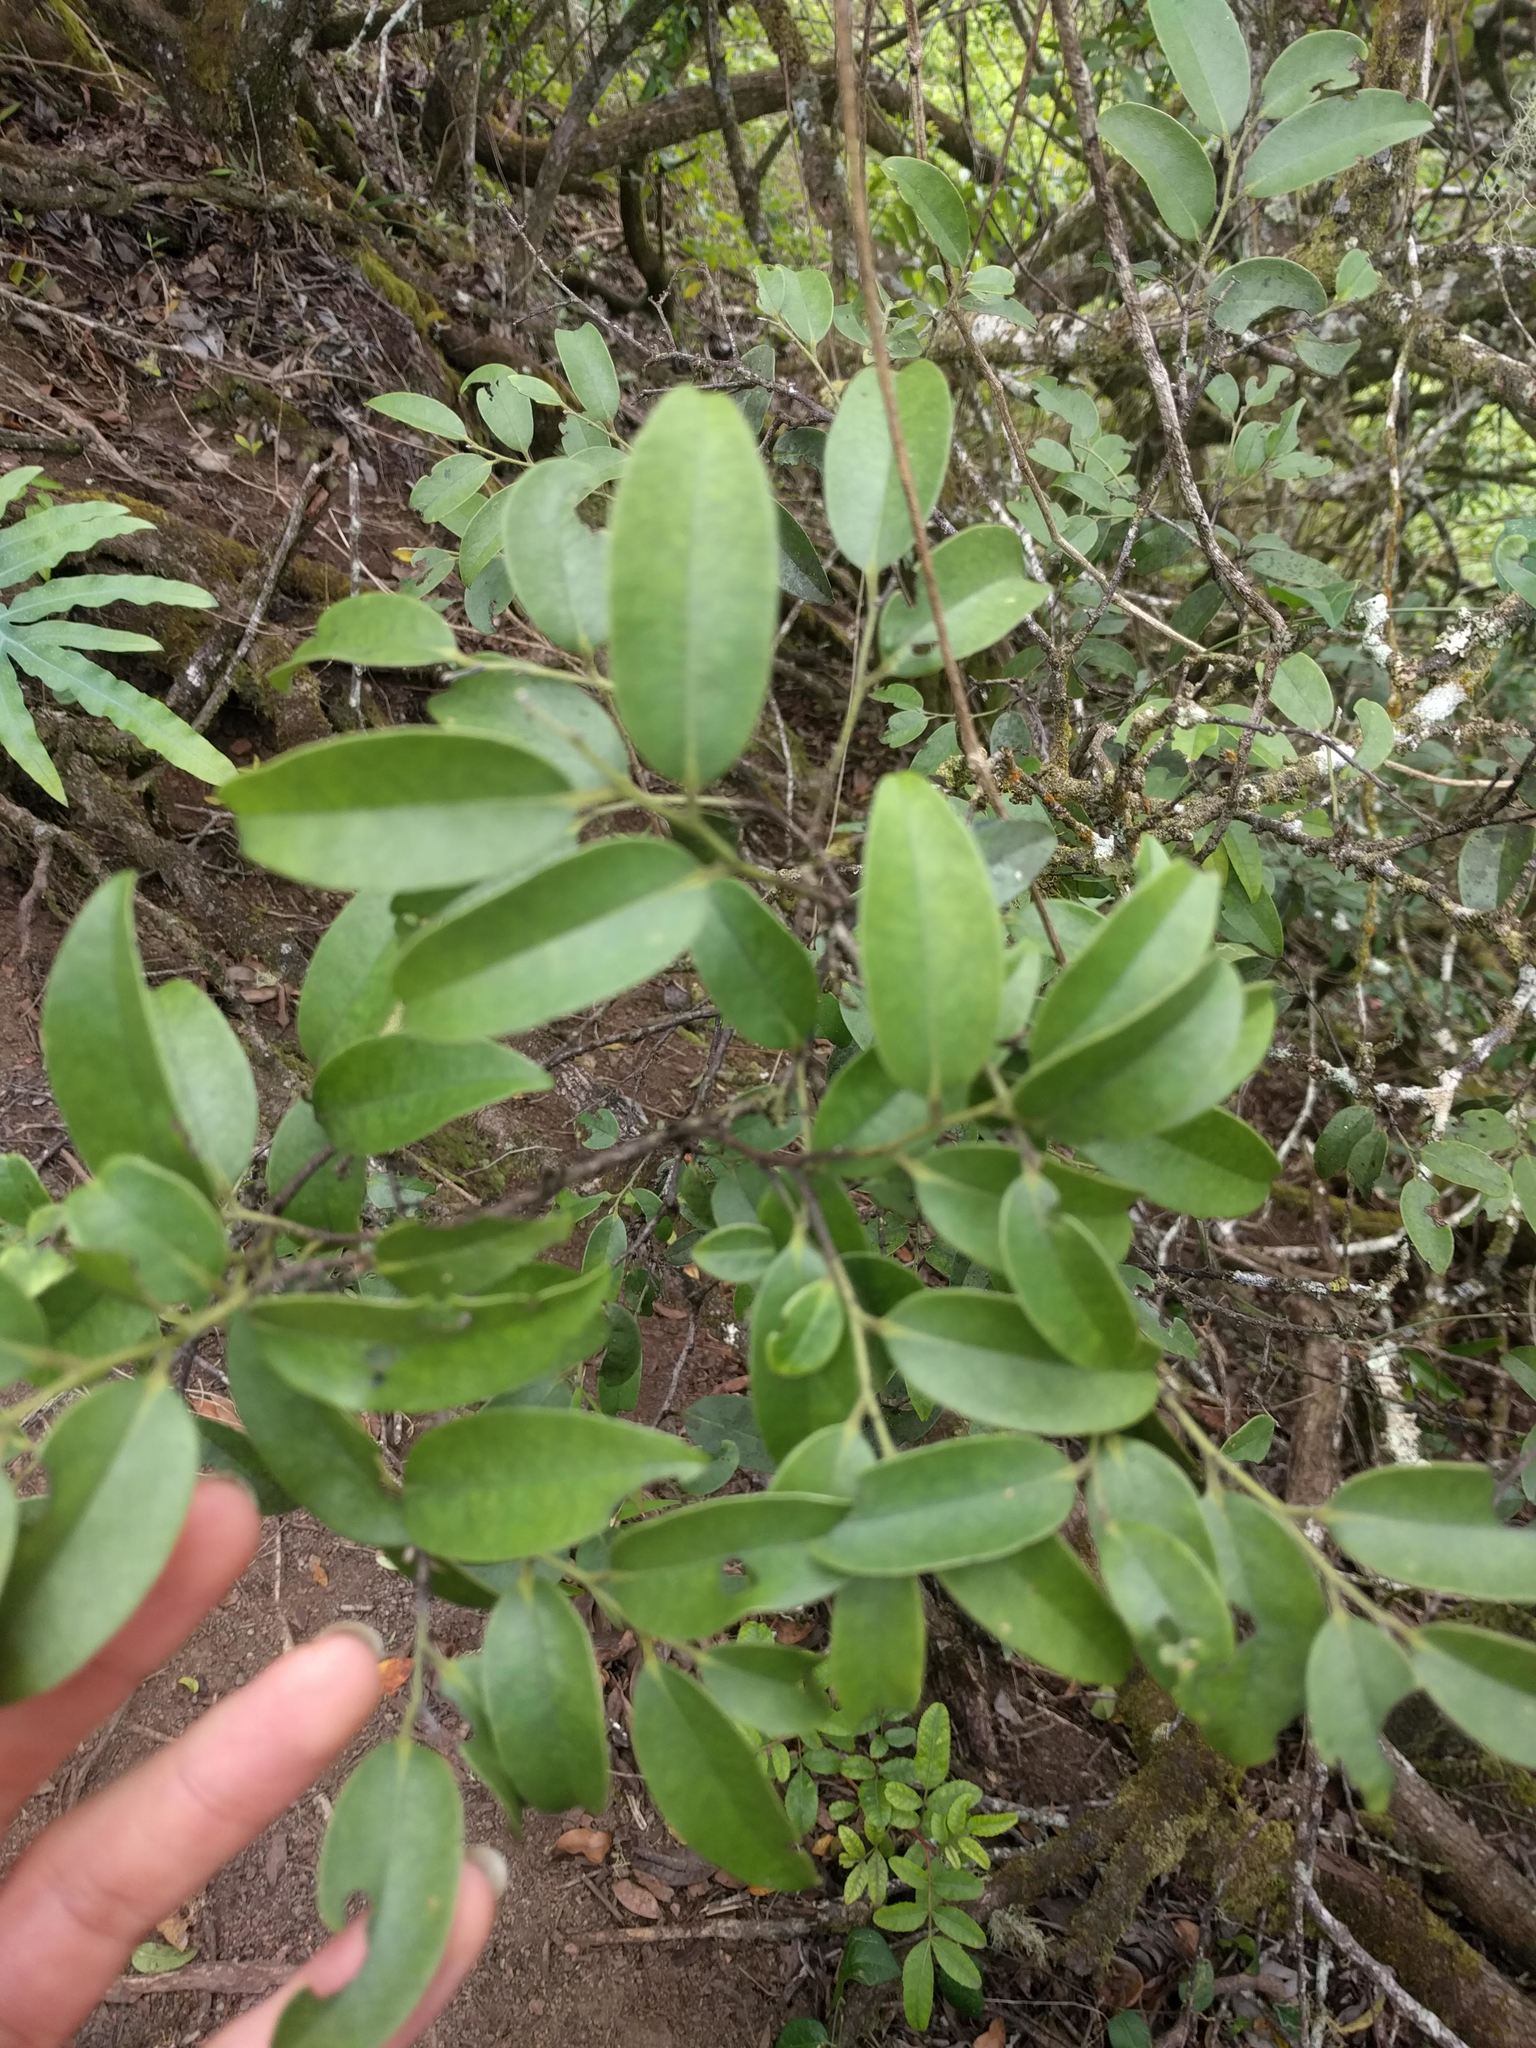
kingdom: Plantae
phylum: Tracheophyta
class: Magnoliopsida
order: Ericales
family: Ebenaceae
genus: Diospyros
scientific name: Diospyros sandwicensis
